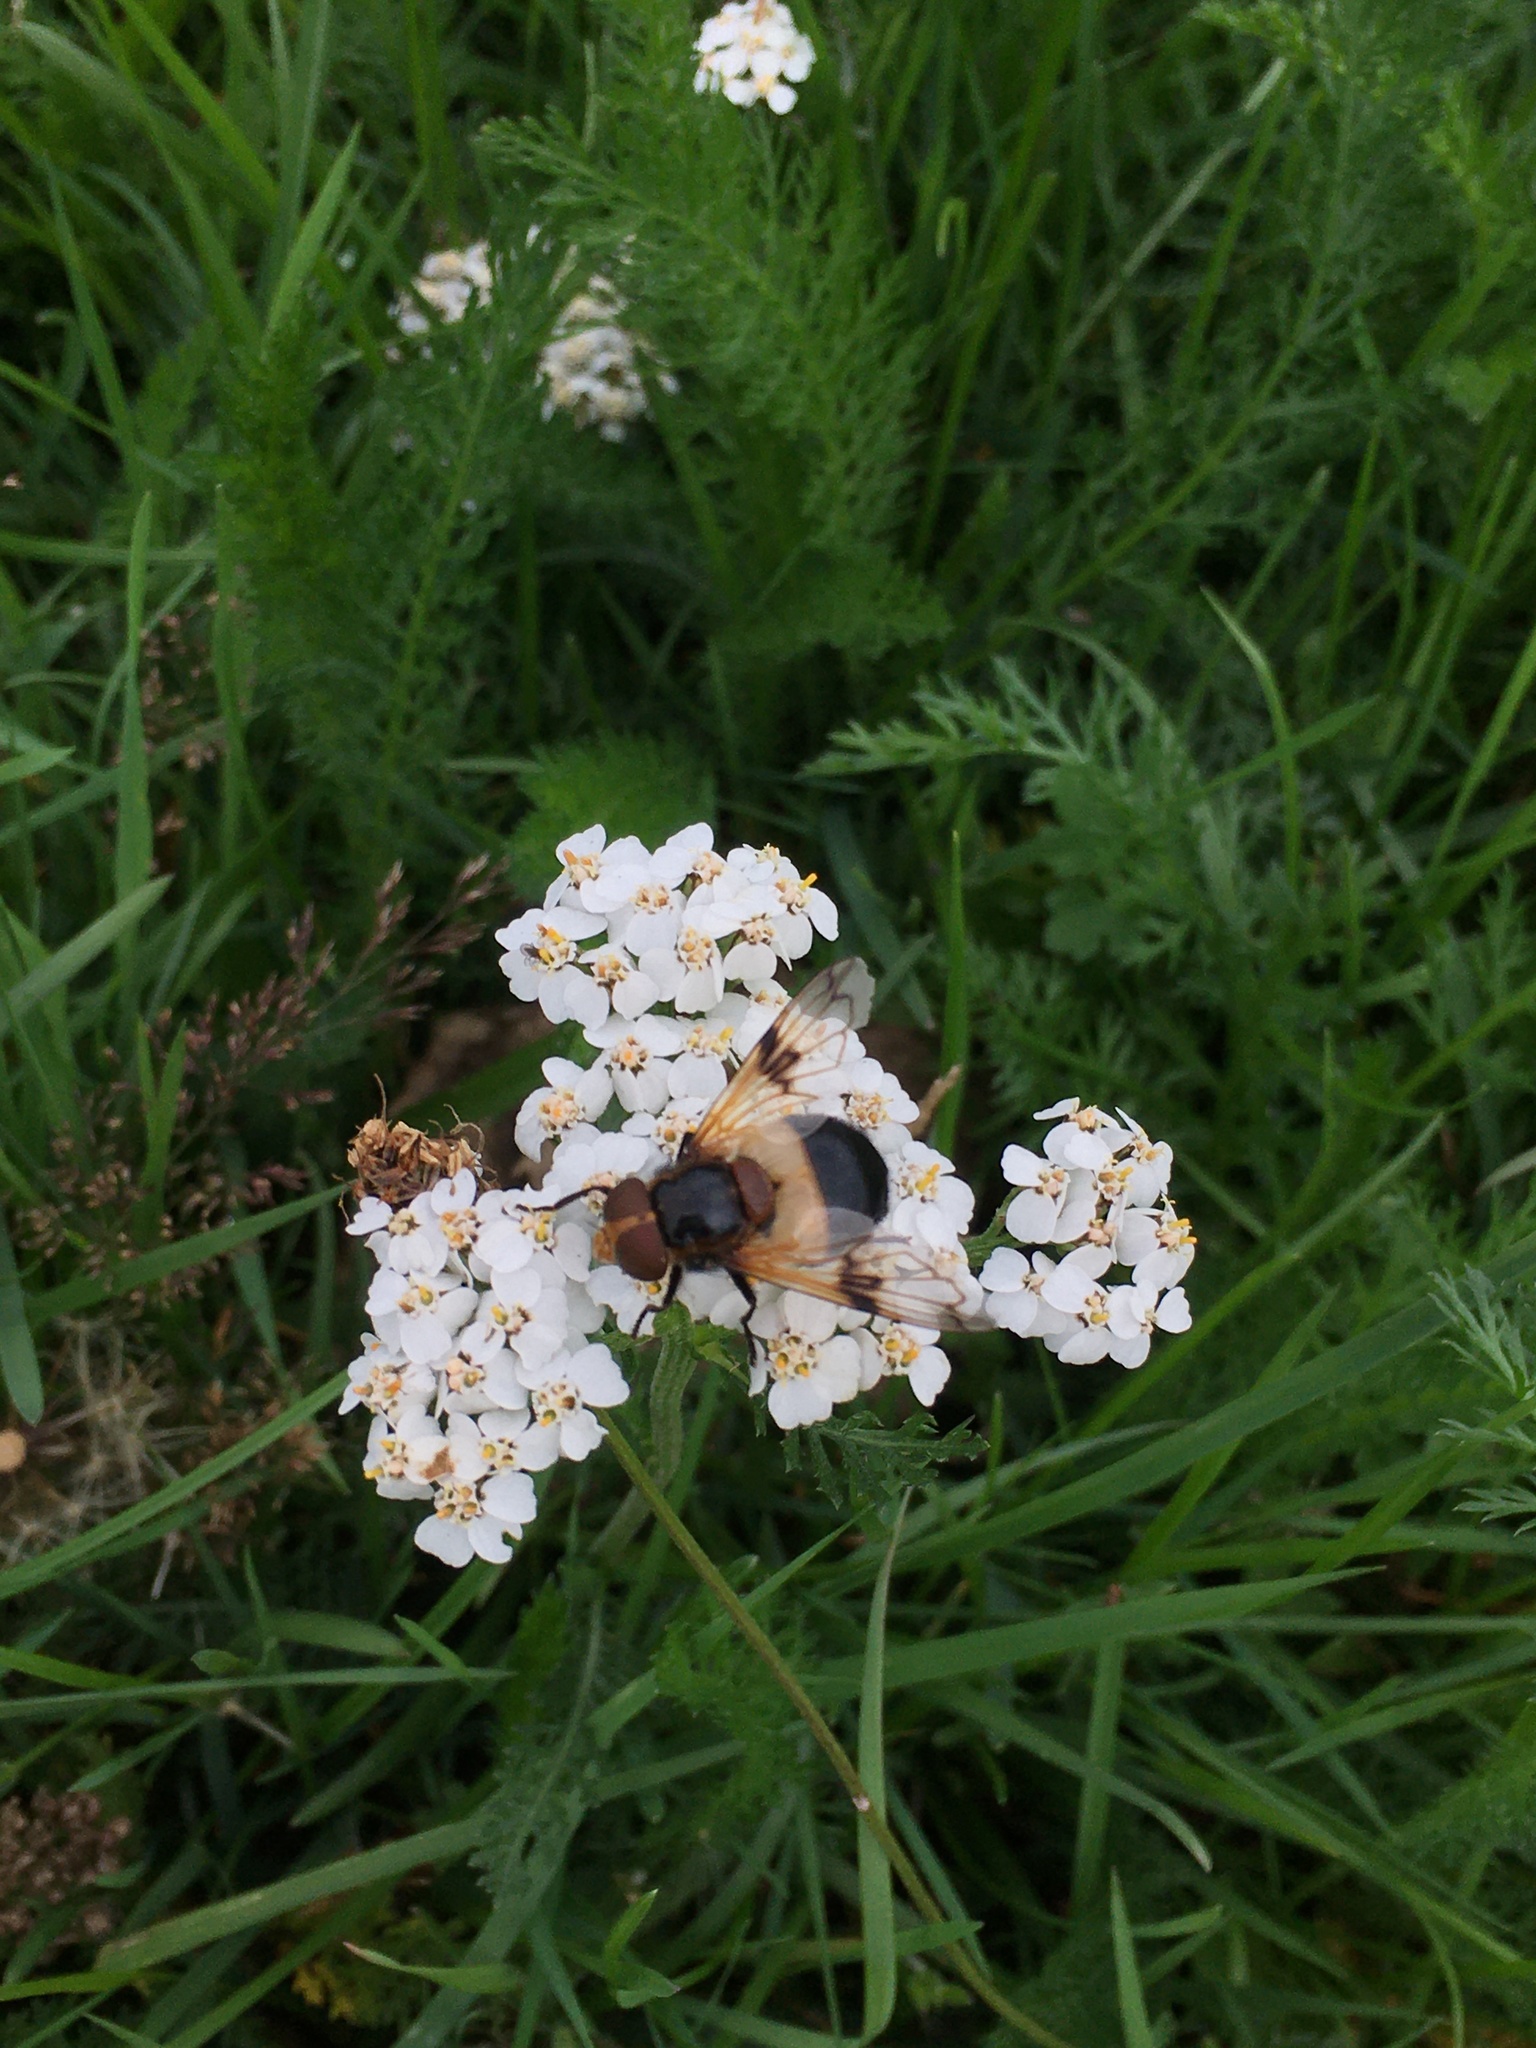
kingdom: Animalia
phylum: Arthropoda
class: Insecta
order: Diptera
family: Syrphidae
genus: Volucella
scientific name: Volucella pellucens
